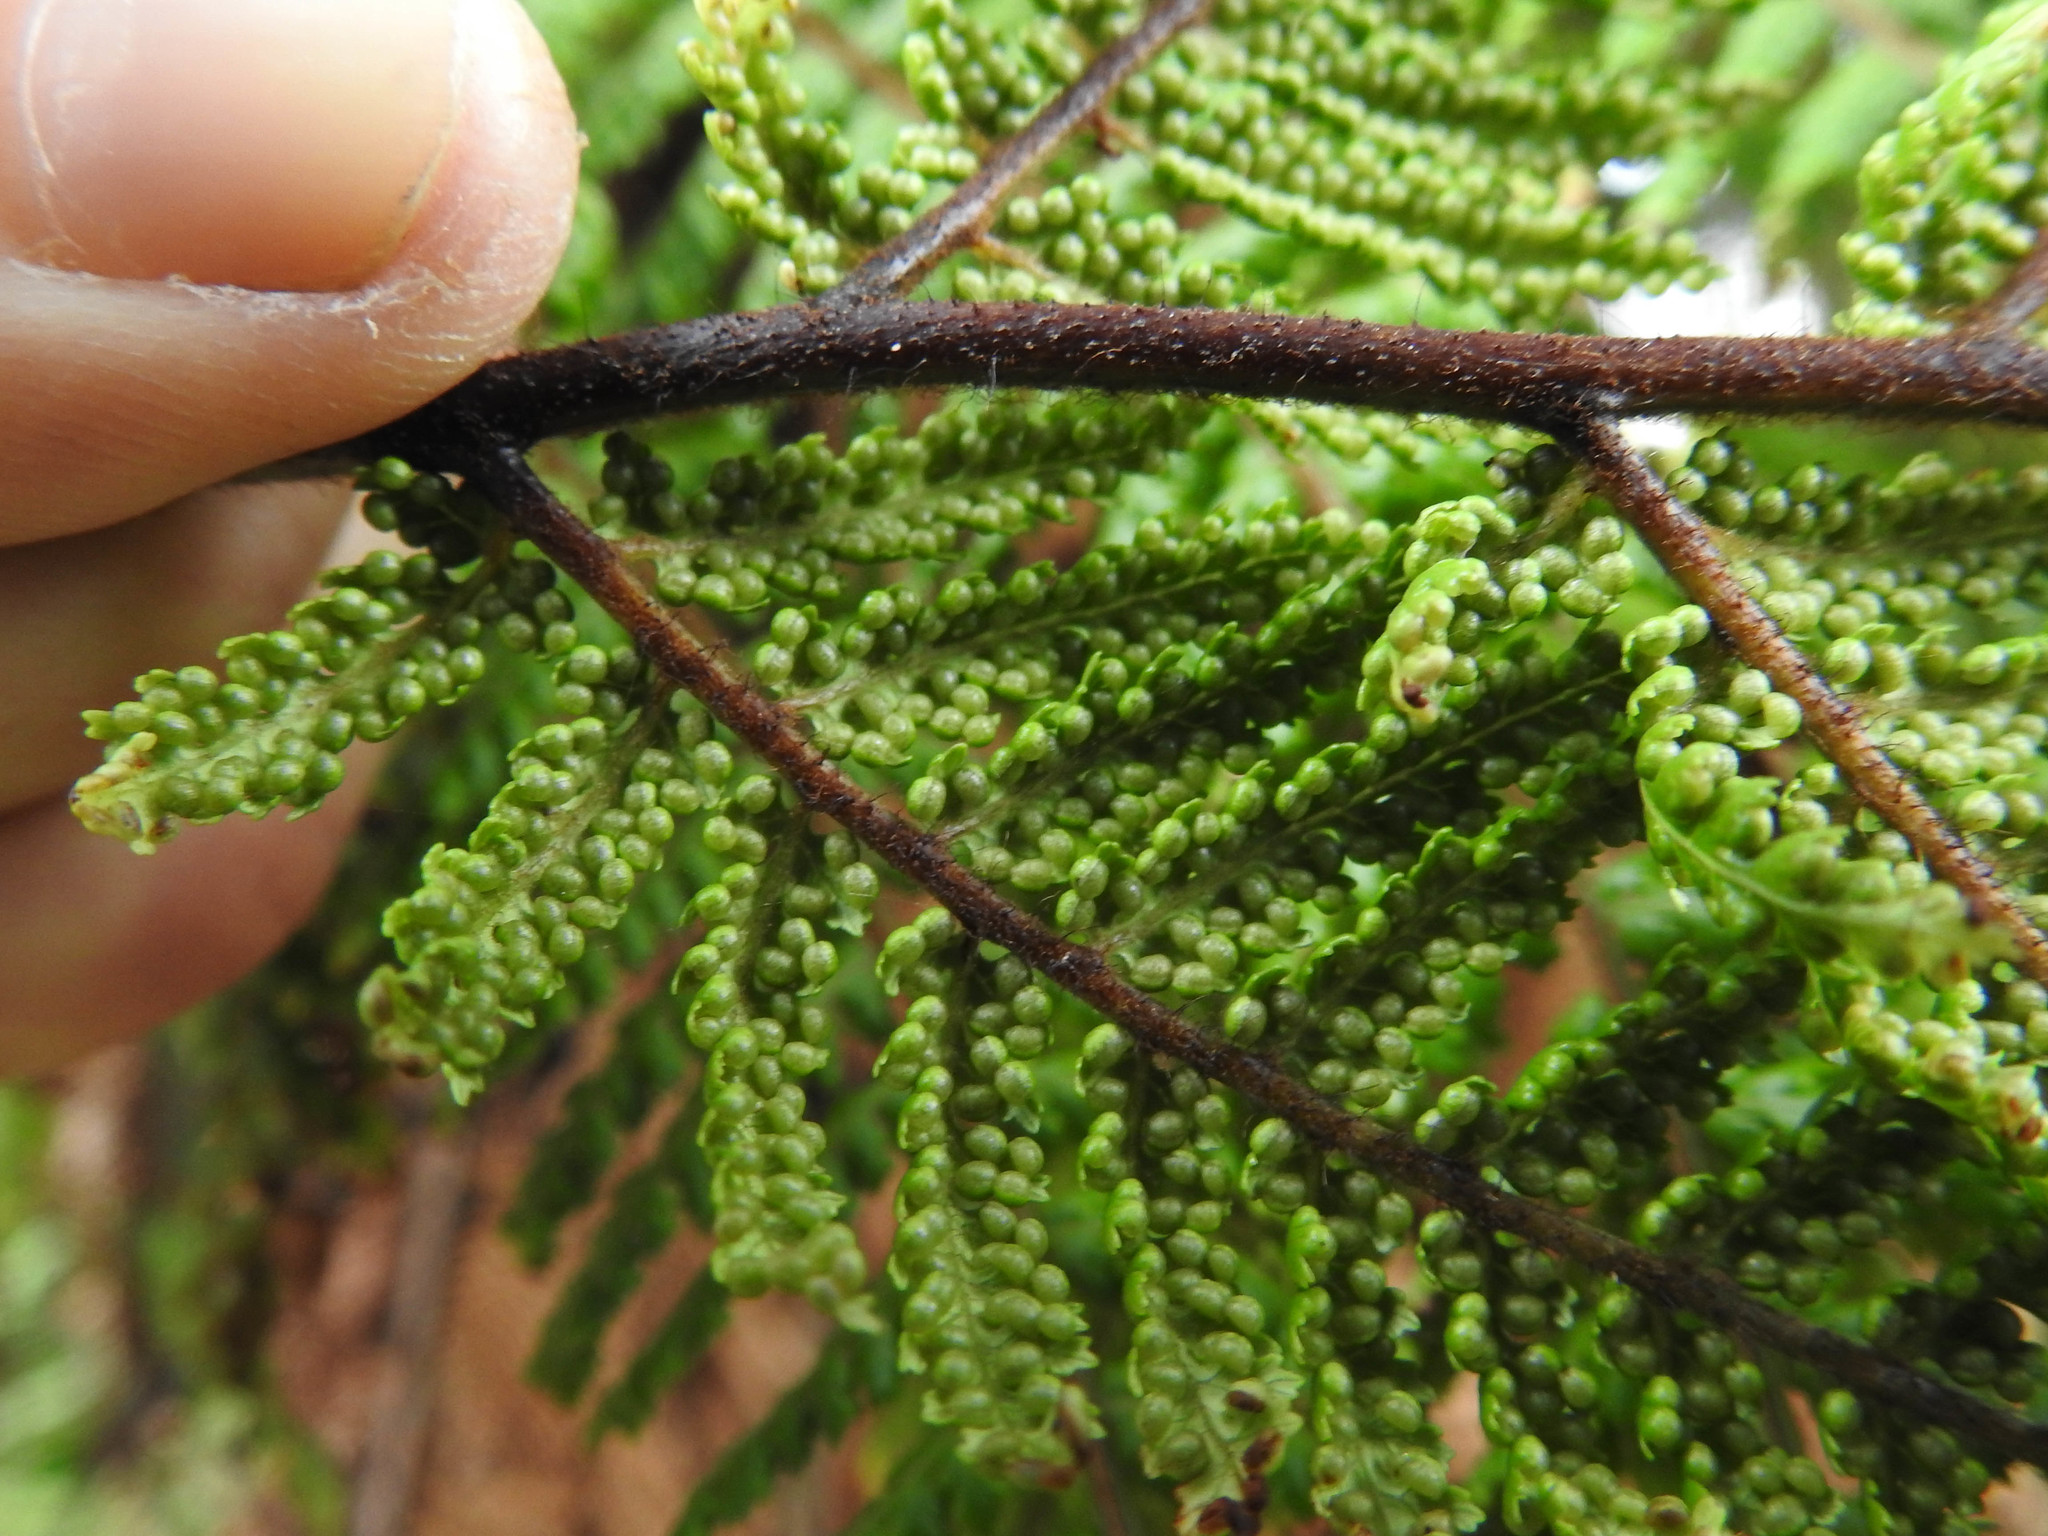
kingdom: Plantae
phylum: Tracheophyta
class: Polypodiopsida
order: Cyatheales
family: Dicksoniaceae
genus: Dicksonia
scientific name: Dicksonia squarrosa
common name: Hard treefern
